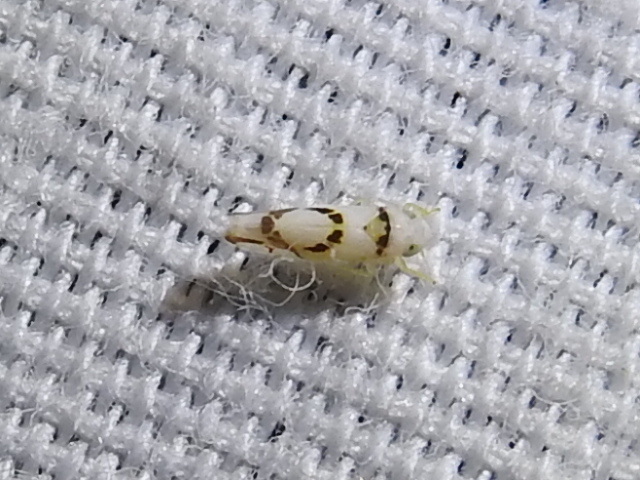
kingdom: Animalia
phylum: Arthropoda
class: Insecta
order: Hemiptera
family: Cicadellidae
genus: Eratoneura
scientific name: Eratoneura lunata
